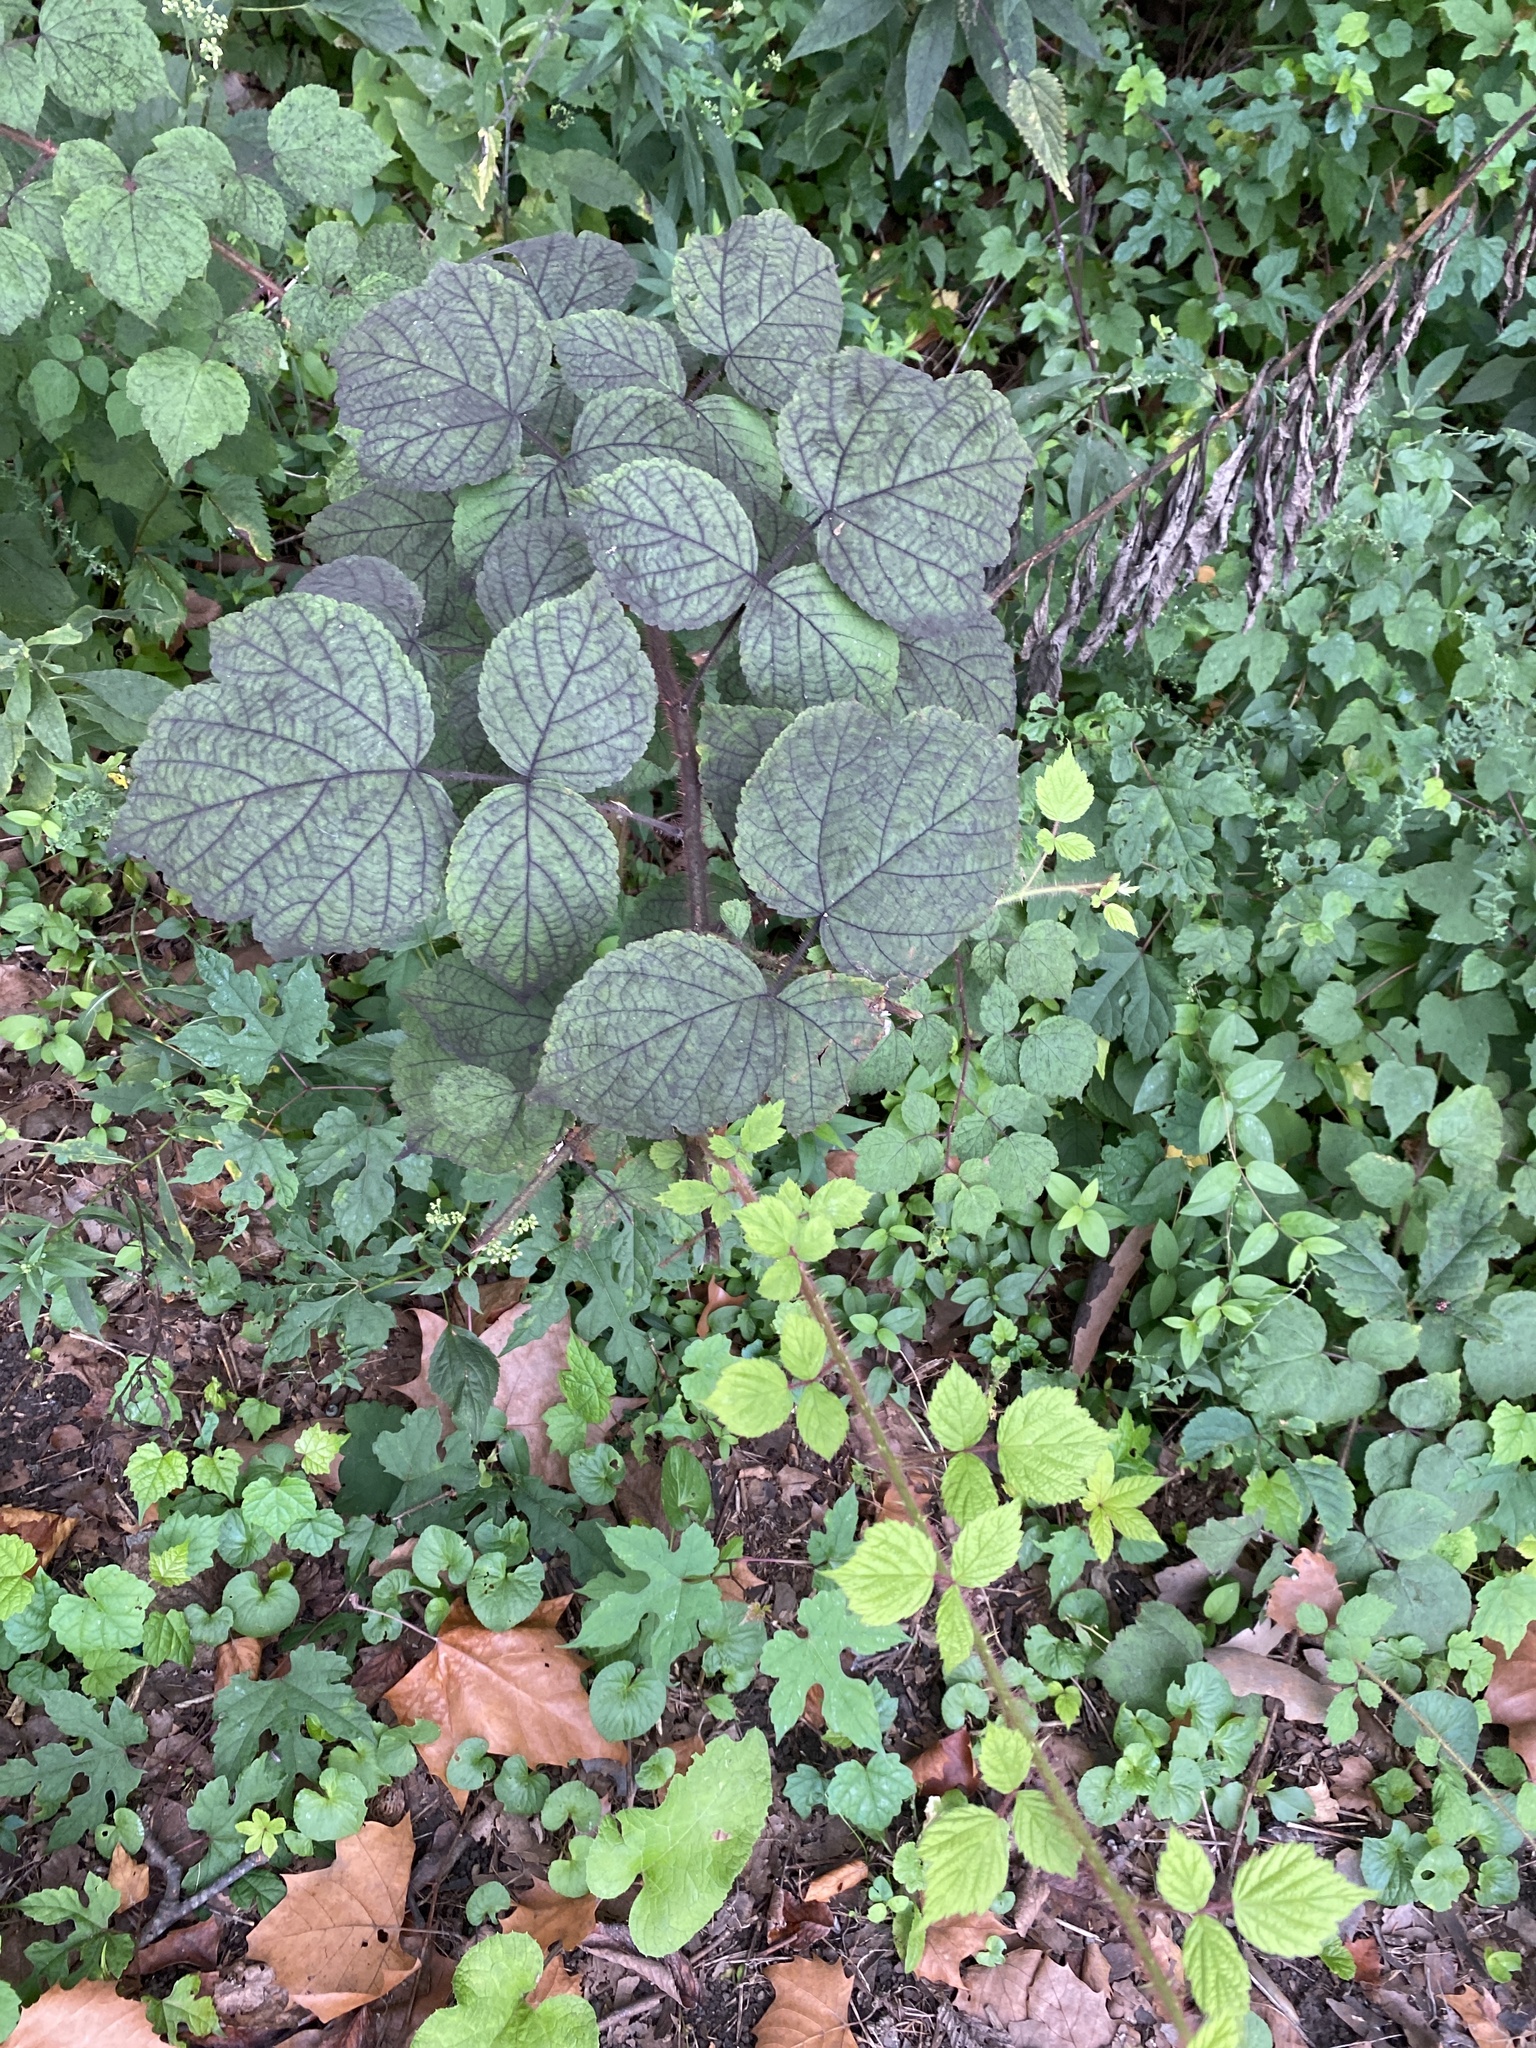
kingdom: Plantae
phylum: Tracheophyta
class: Magnoliopsida
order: Rosales
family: Rosaceae
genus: Rubus
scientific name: Rubus phoenicolasius
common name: Japanese wineberry
